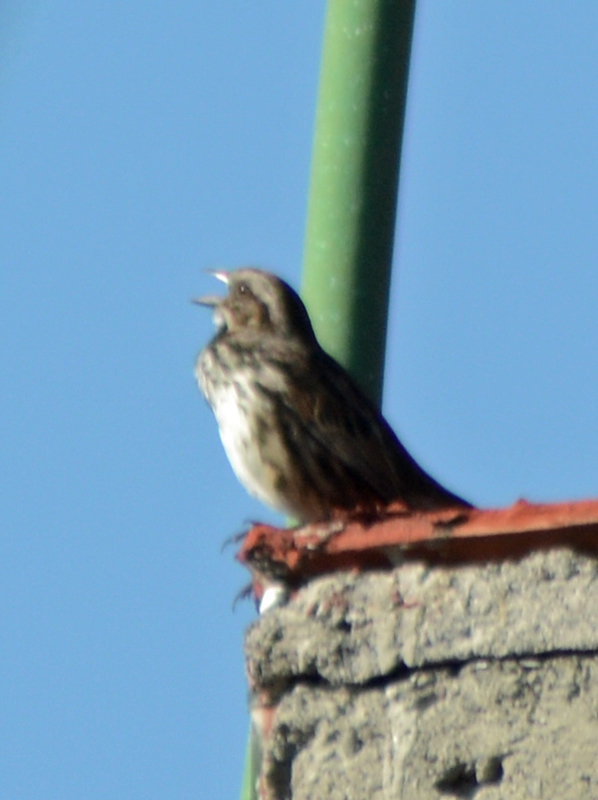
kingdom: Animalia
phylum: Chordata
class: Aves
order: Passeriformes
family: Passerellidae
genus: Melospiza
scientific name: Melospiza melodia
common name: Song sparrow
